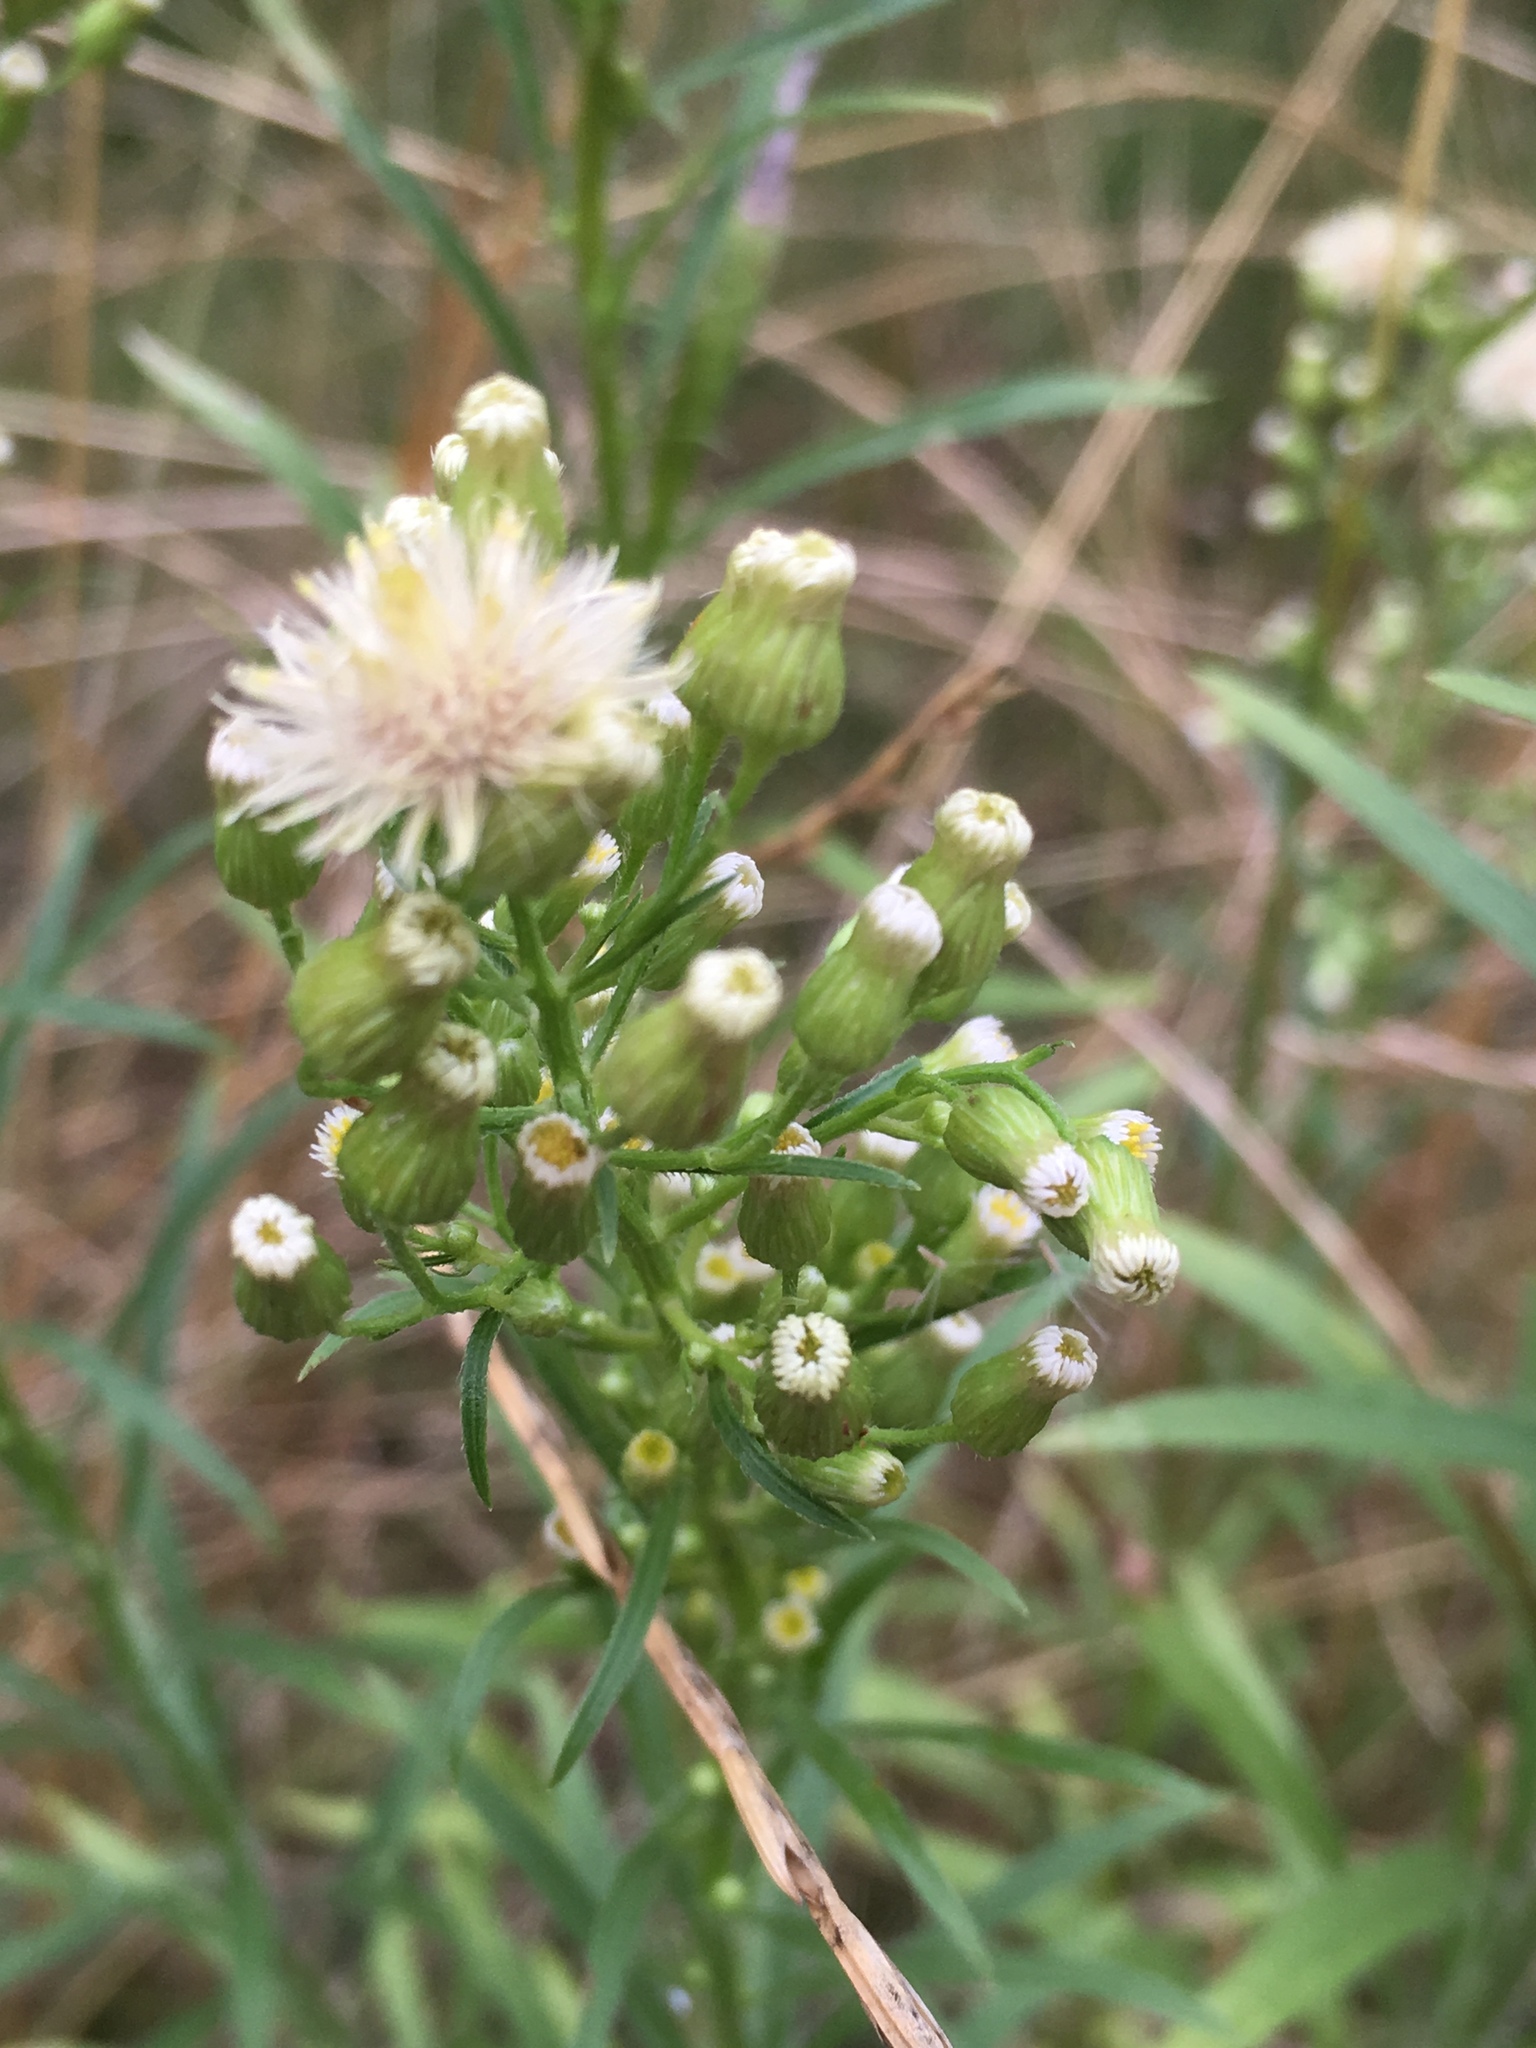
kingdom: Plantae
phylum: Tracheophyta
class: Magnoliopsida
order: Asterales
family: Asteraceae
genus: Erigeron
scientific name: Erigeron canadensis
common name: Canadian fleabane
